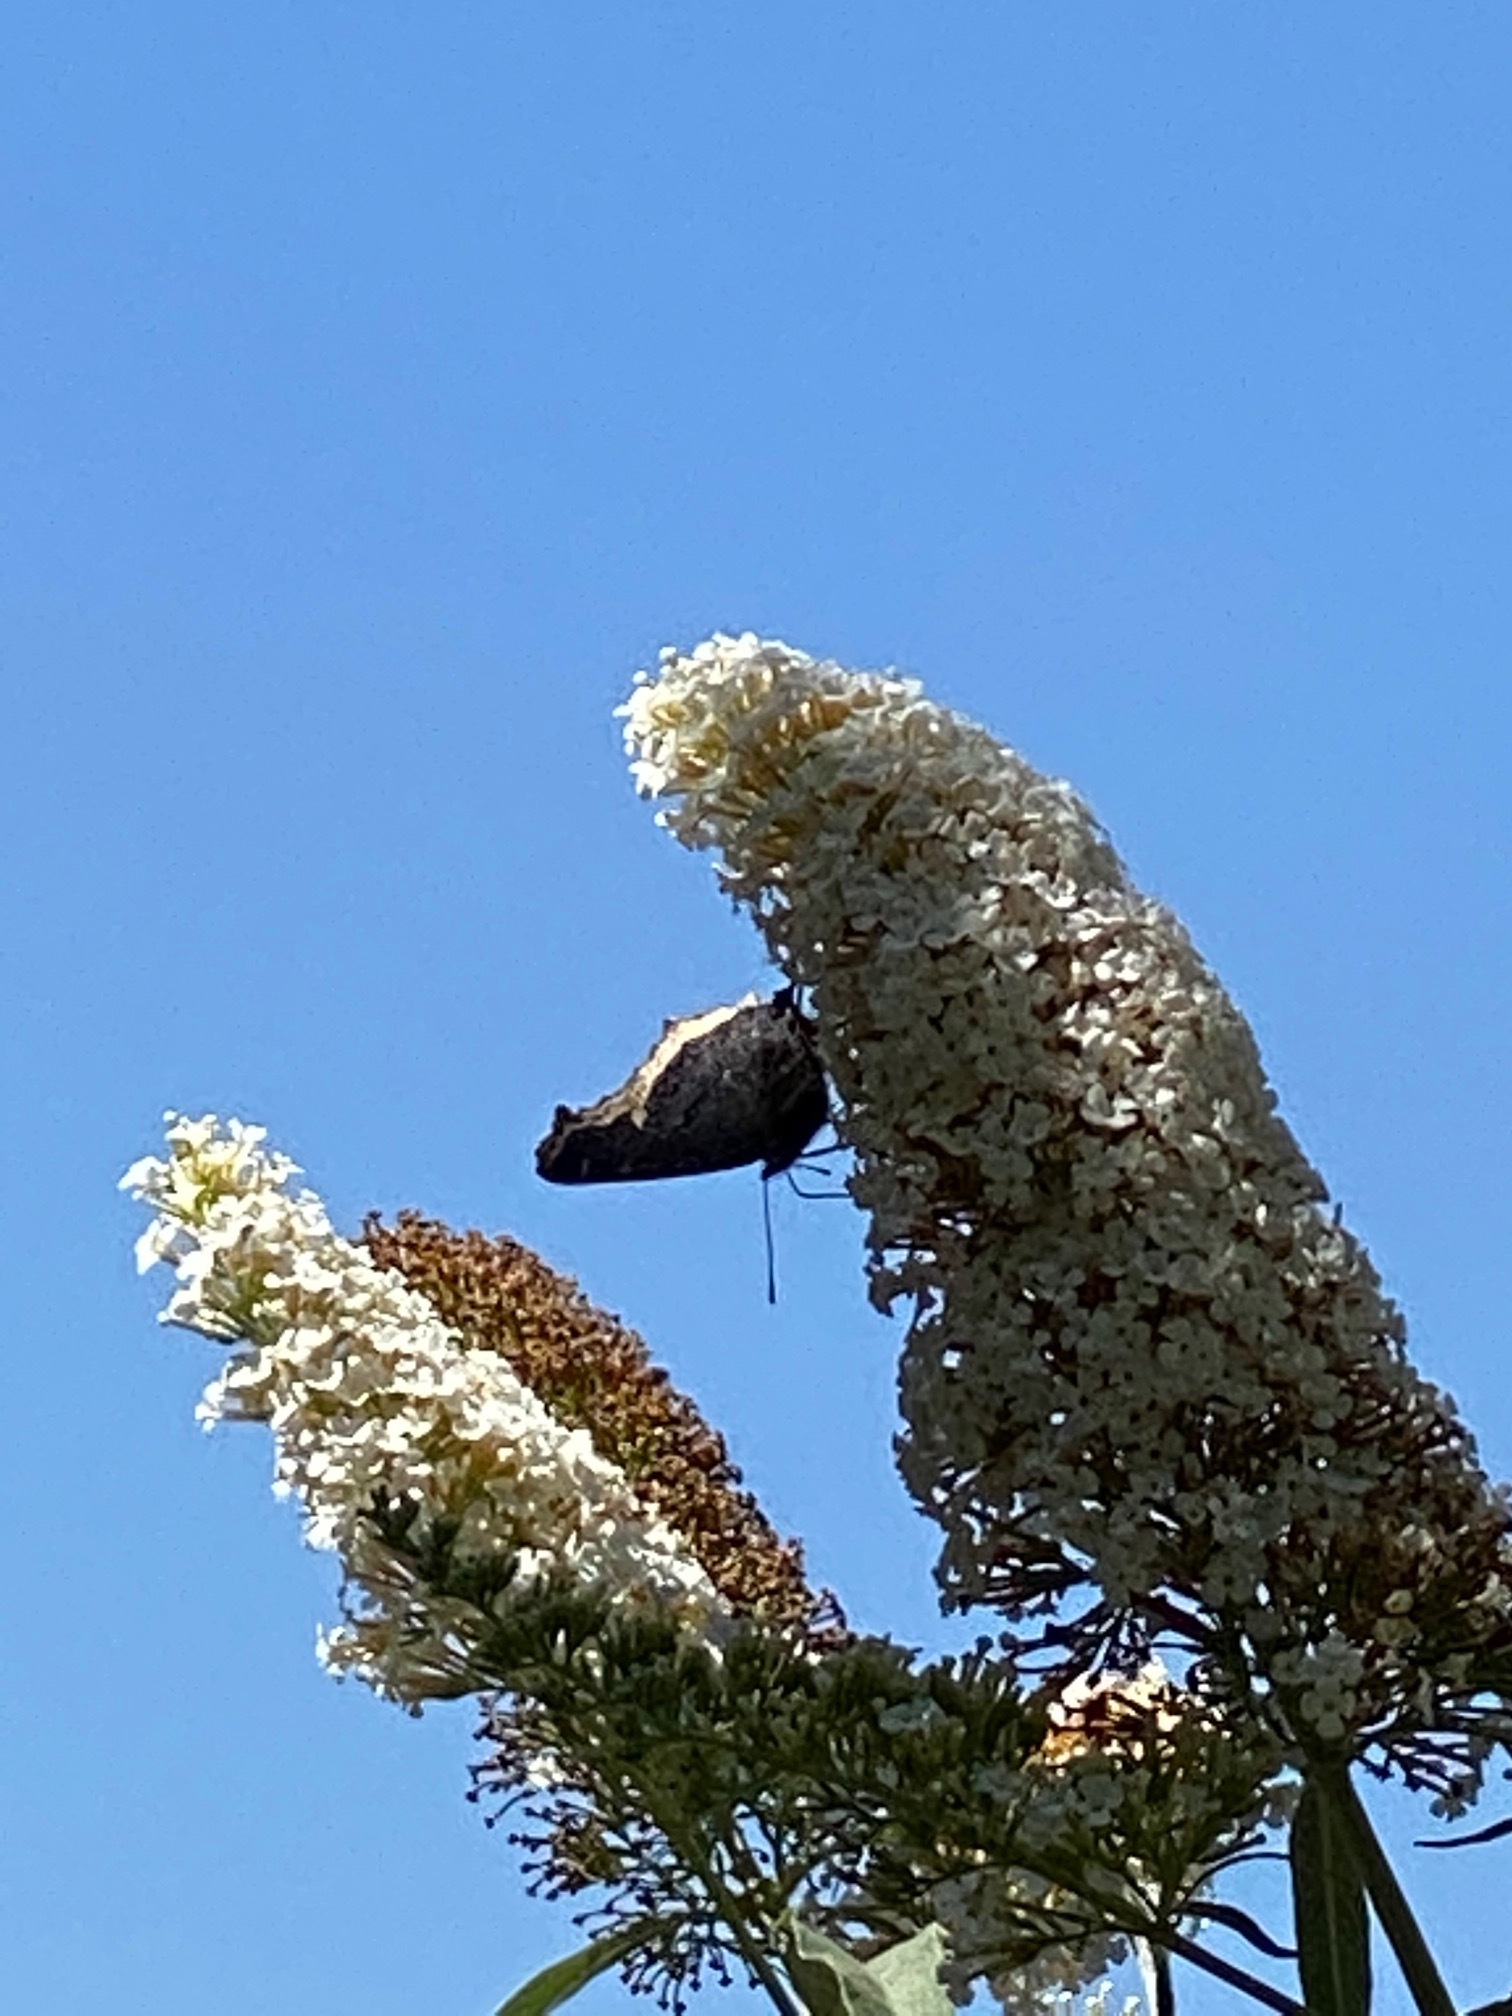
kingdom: Animalia
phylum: Arthropoda
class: Insecta
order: Lepidoptera
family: Nymphalidae
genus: Nymphalis
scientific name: Nymphalis antiopa
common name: Camberwell beauty
